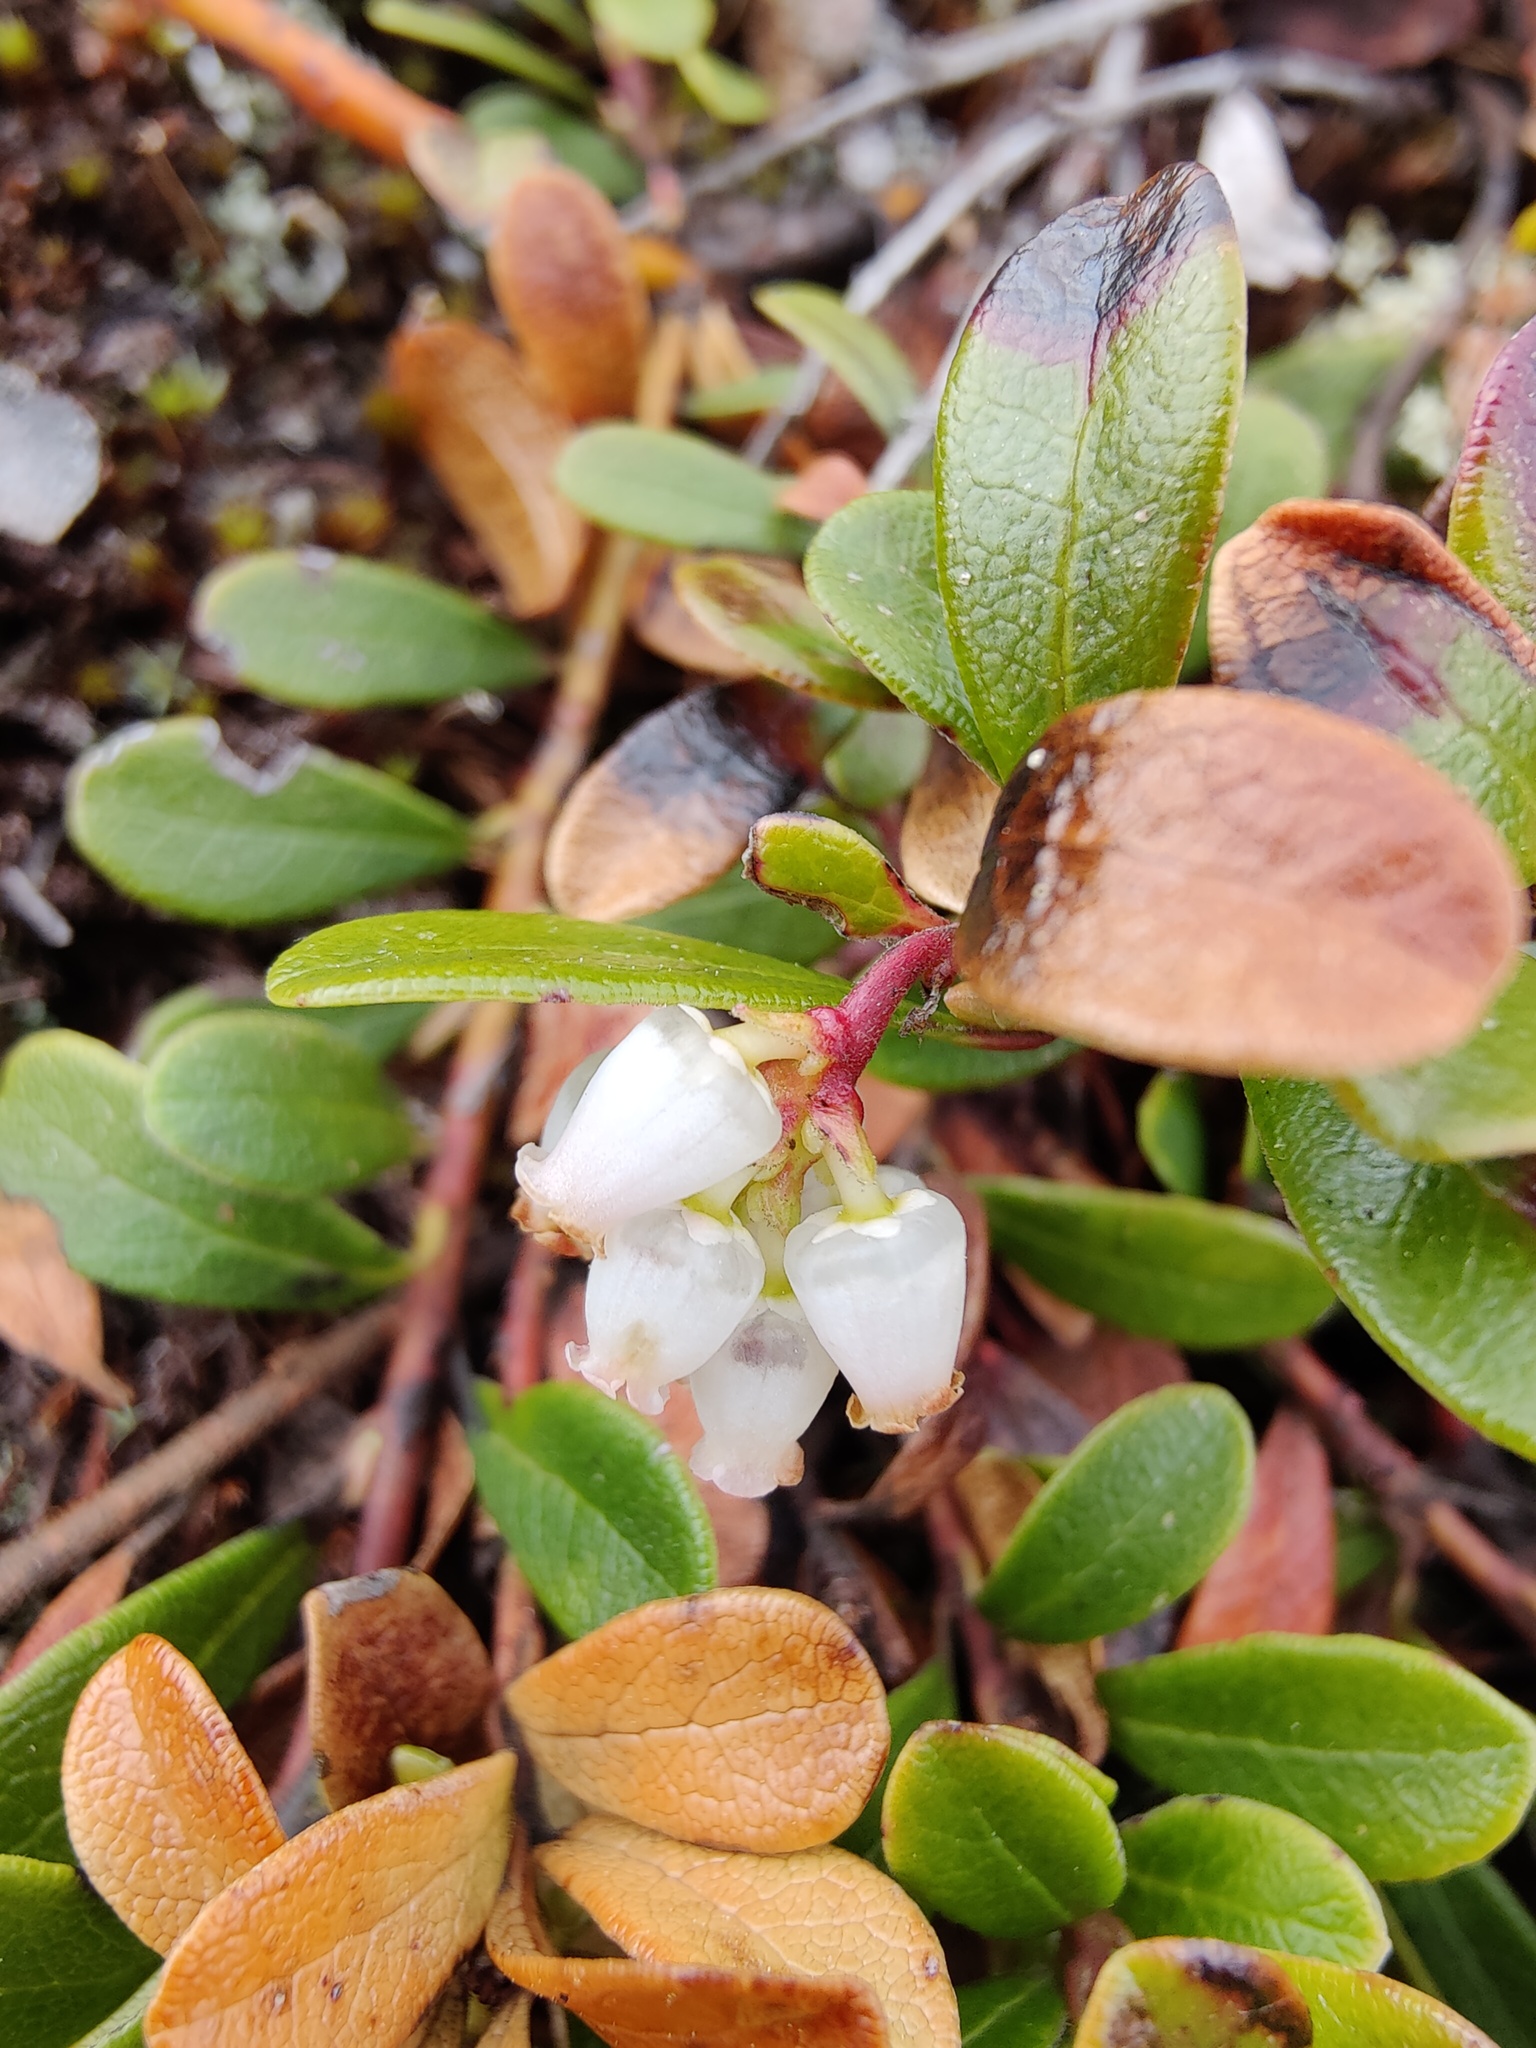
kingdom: Plantae
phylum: Tracheophyta
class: Magnoliopsida
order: Ericales
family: Ericaceae
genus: Arctostaphylos
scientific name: Arctostaphylos uva-ursi
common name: Bearberry
